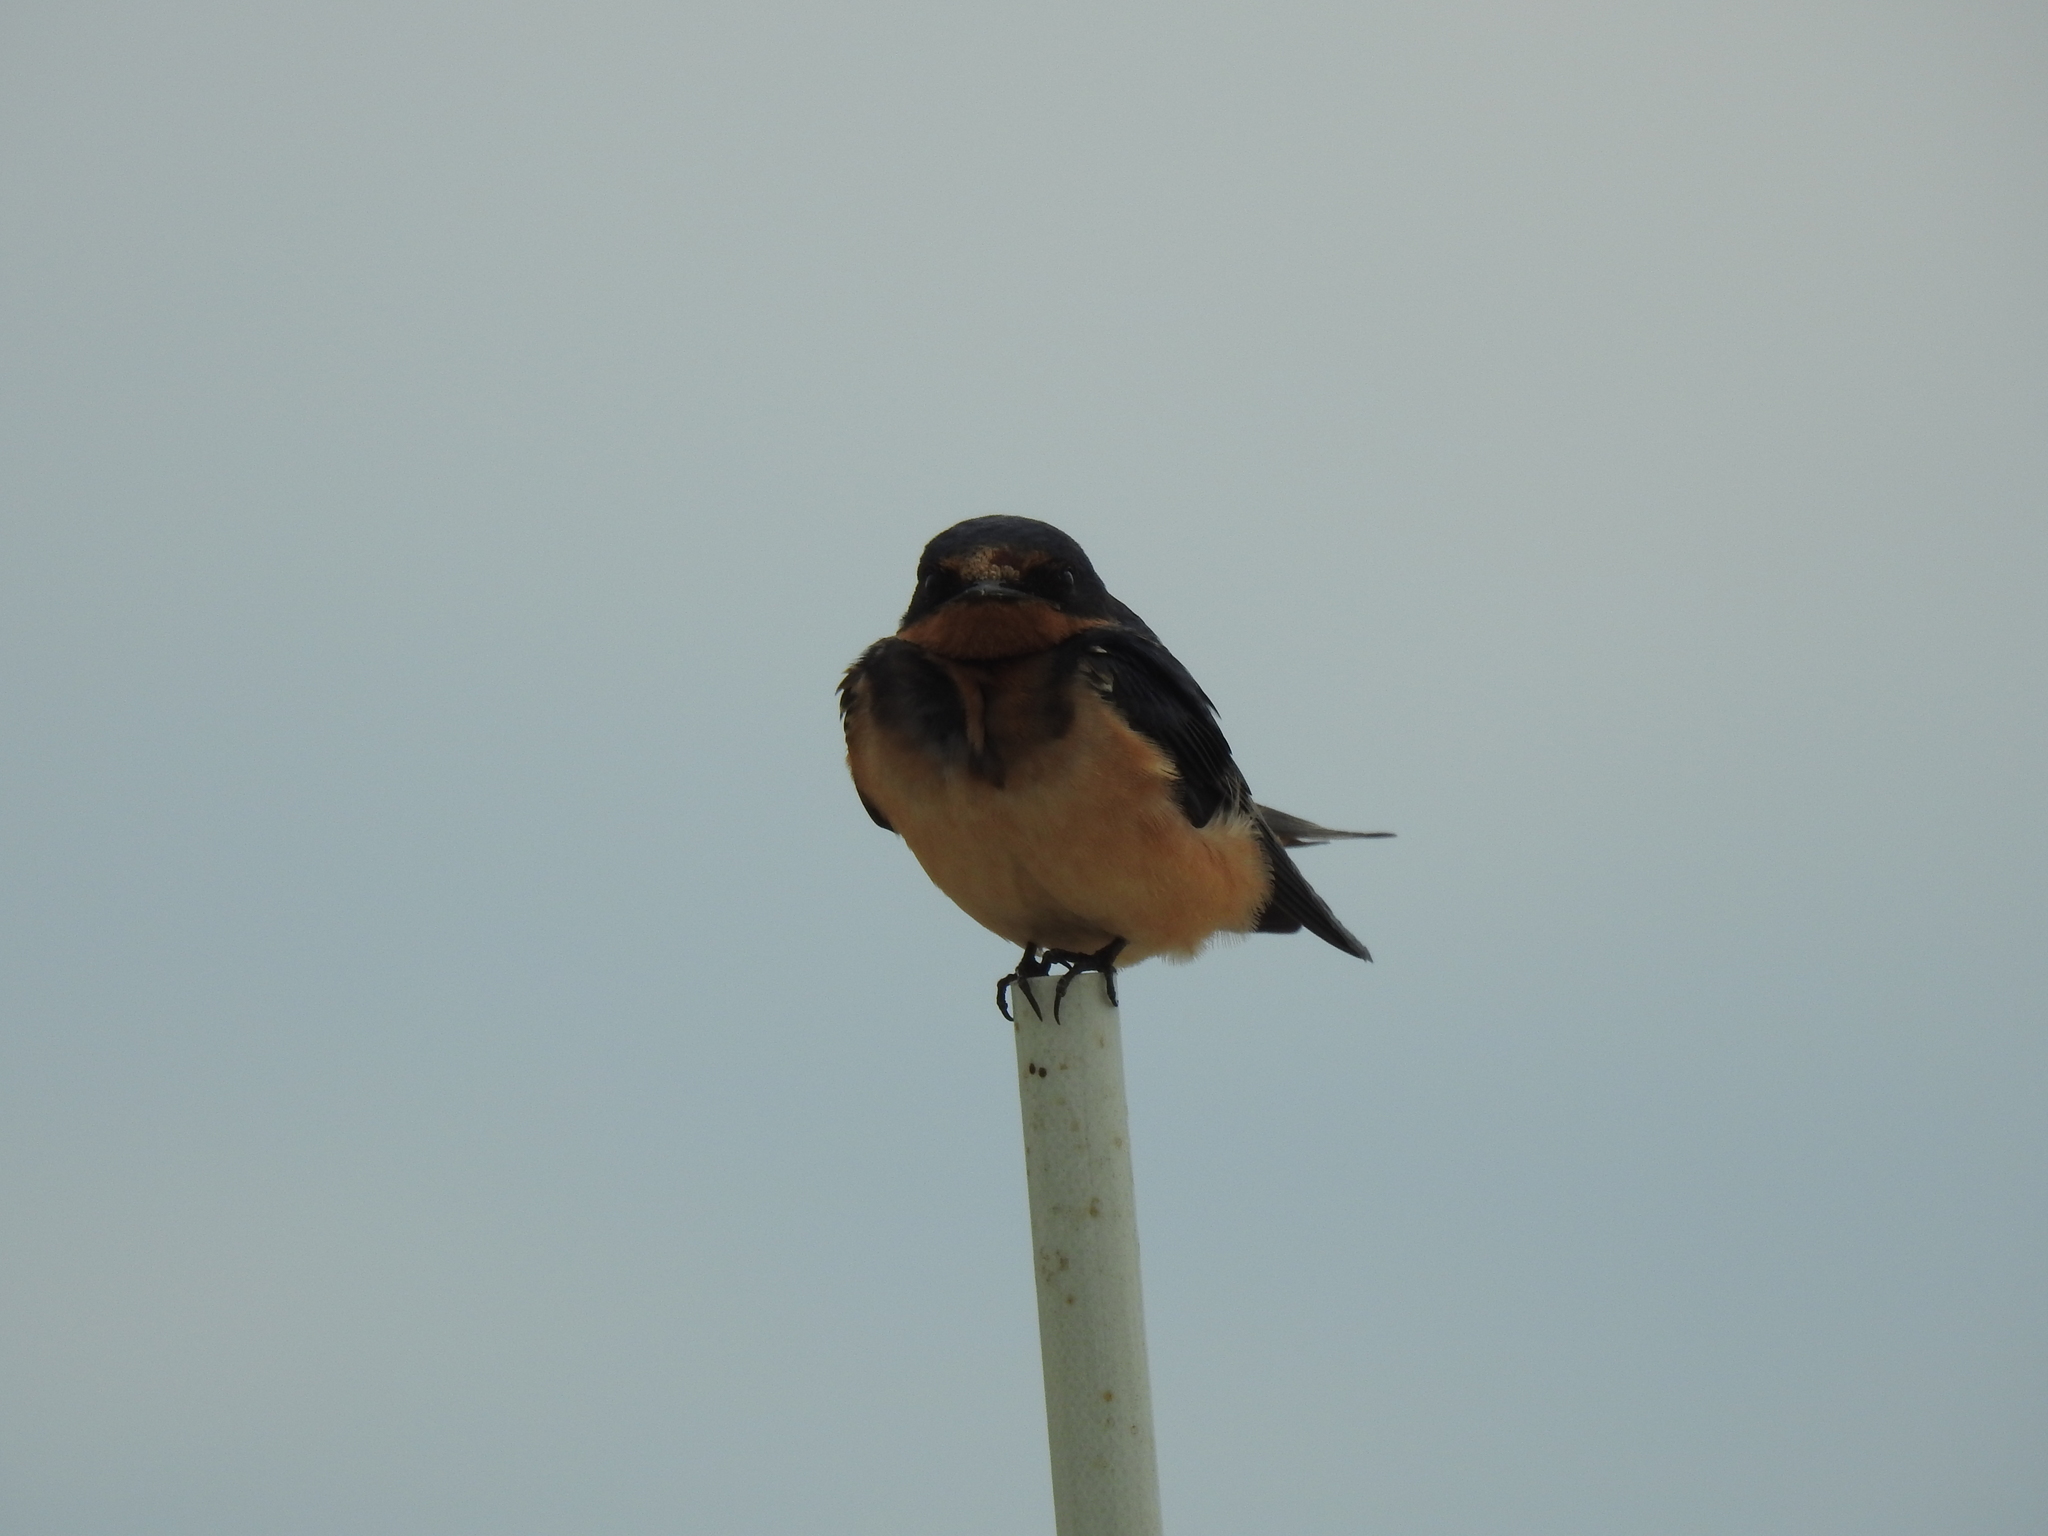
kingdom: Animalia
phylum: Chordata
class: Aves
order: Passeriformes
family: Hirundinidae
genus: Hirundo
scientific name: Hirundo rustica
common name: Barn swallow
